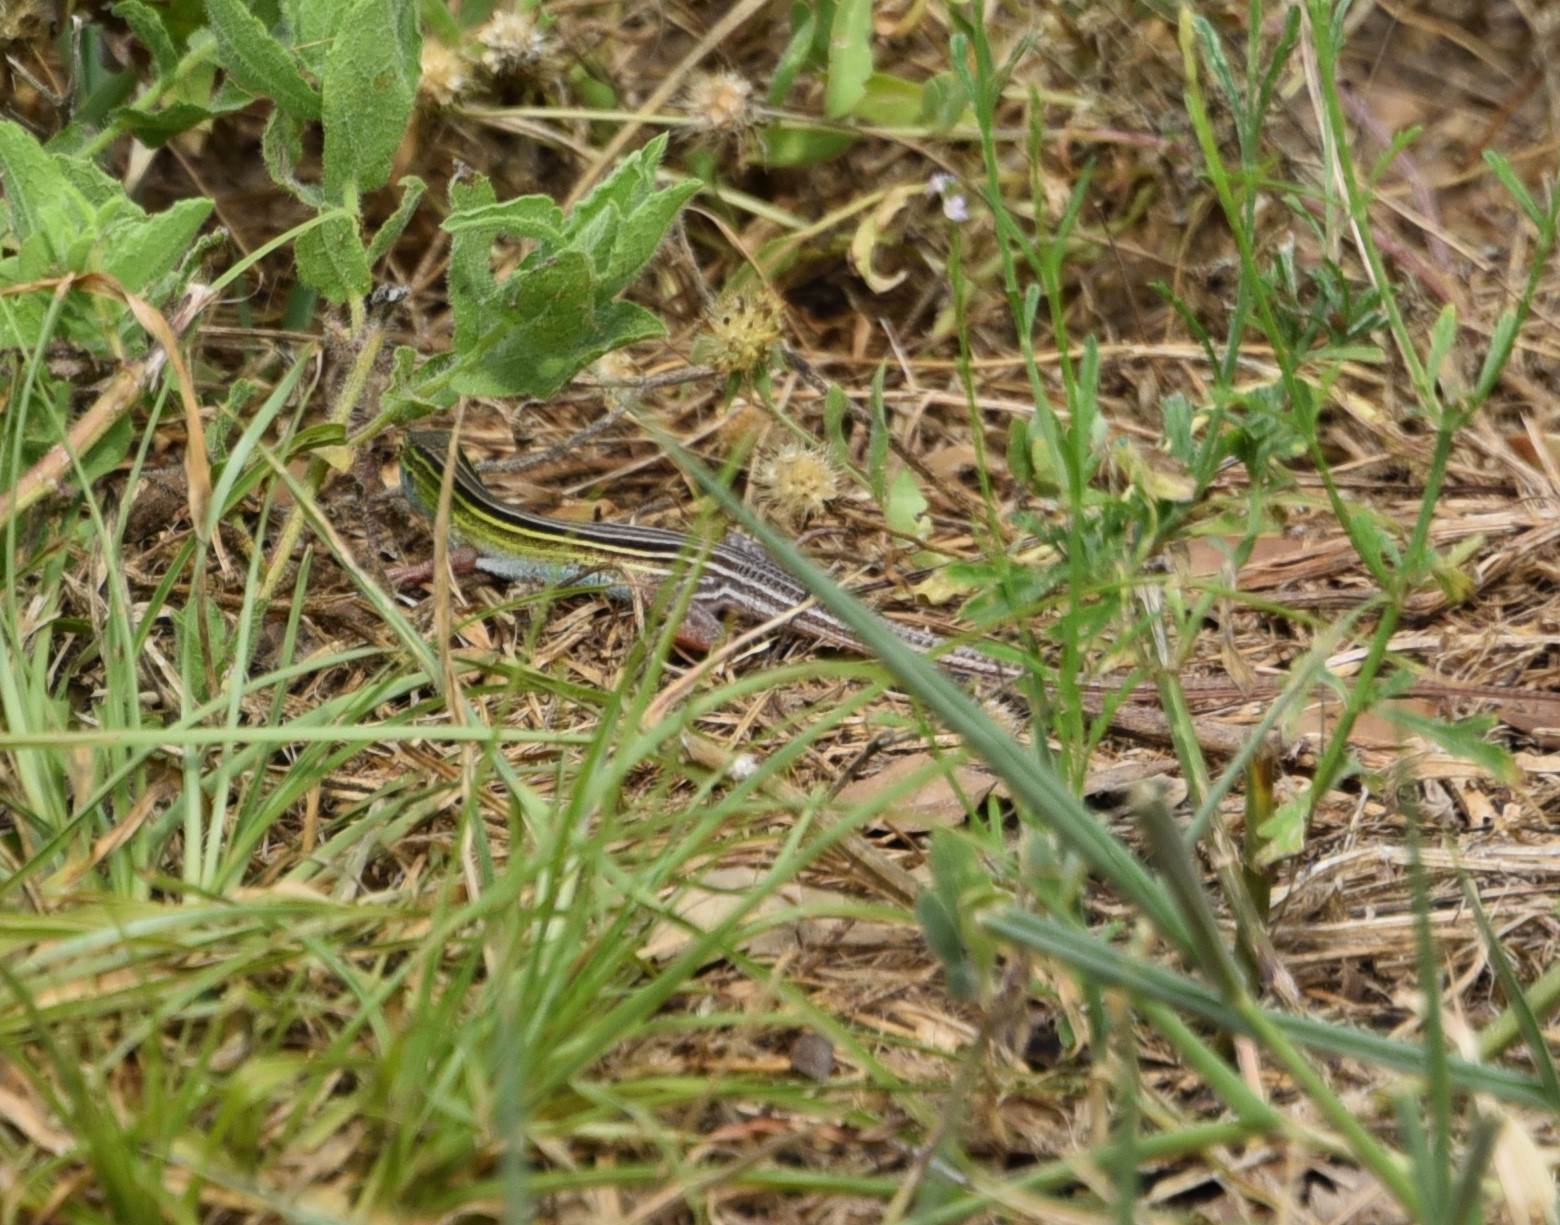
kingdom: Animalia
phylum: Chordata
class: Squamata
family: Teiidae
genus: Aspidoscelis
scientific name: Aspidoscelis sexlineatus
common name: Six-lined racerunner
